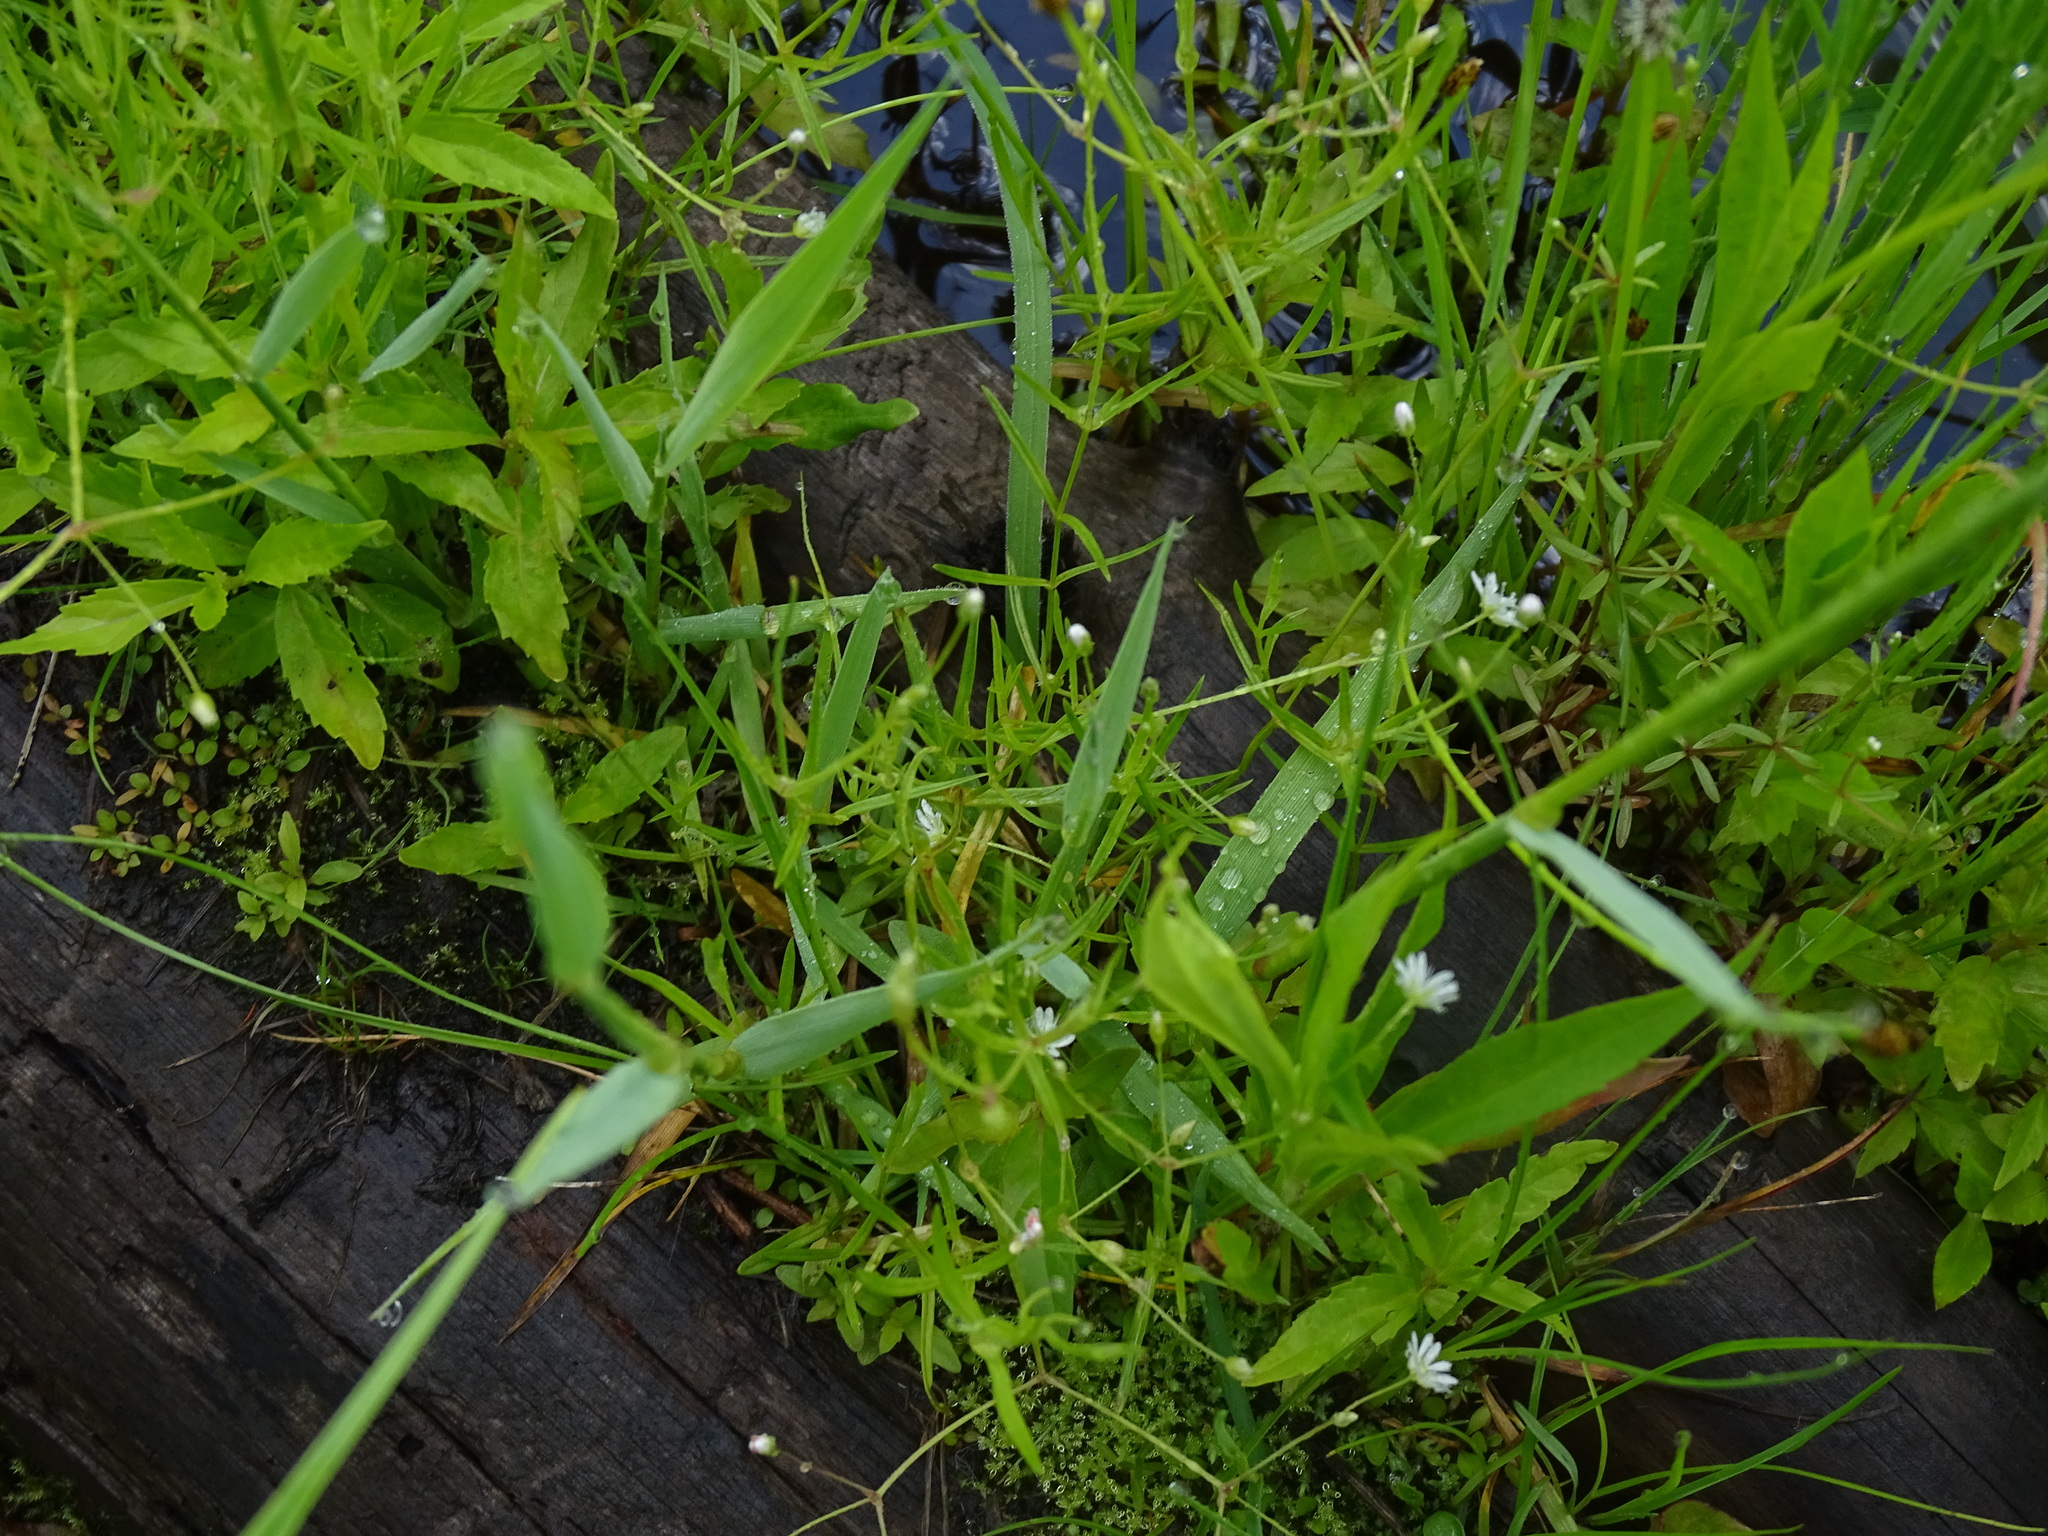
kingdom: Plantae
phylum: Tracheophyta
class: Magnoliopsida
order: Caryophyllales
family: Caryophyllaceae
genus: Stellaria
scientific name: Stellaria longifolia
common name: Long-leaved chickweed
